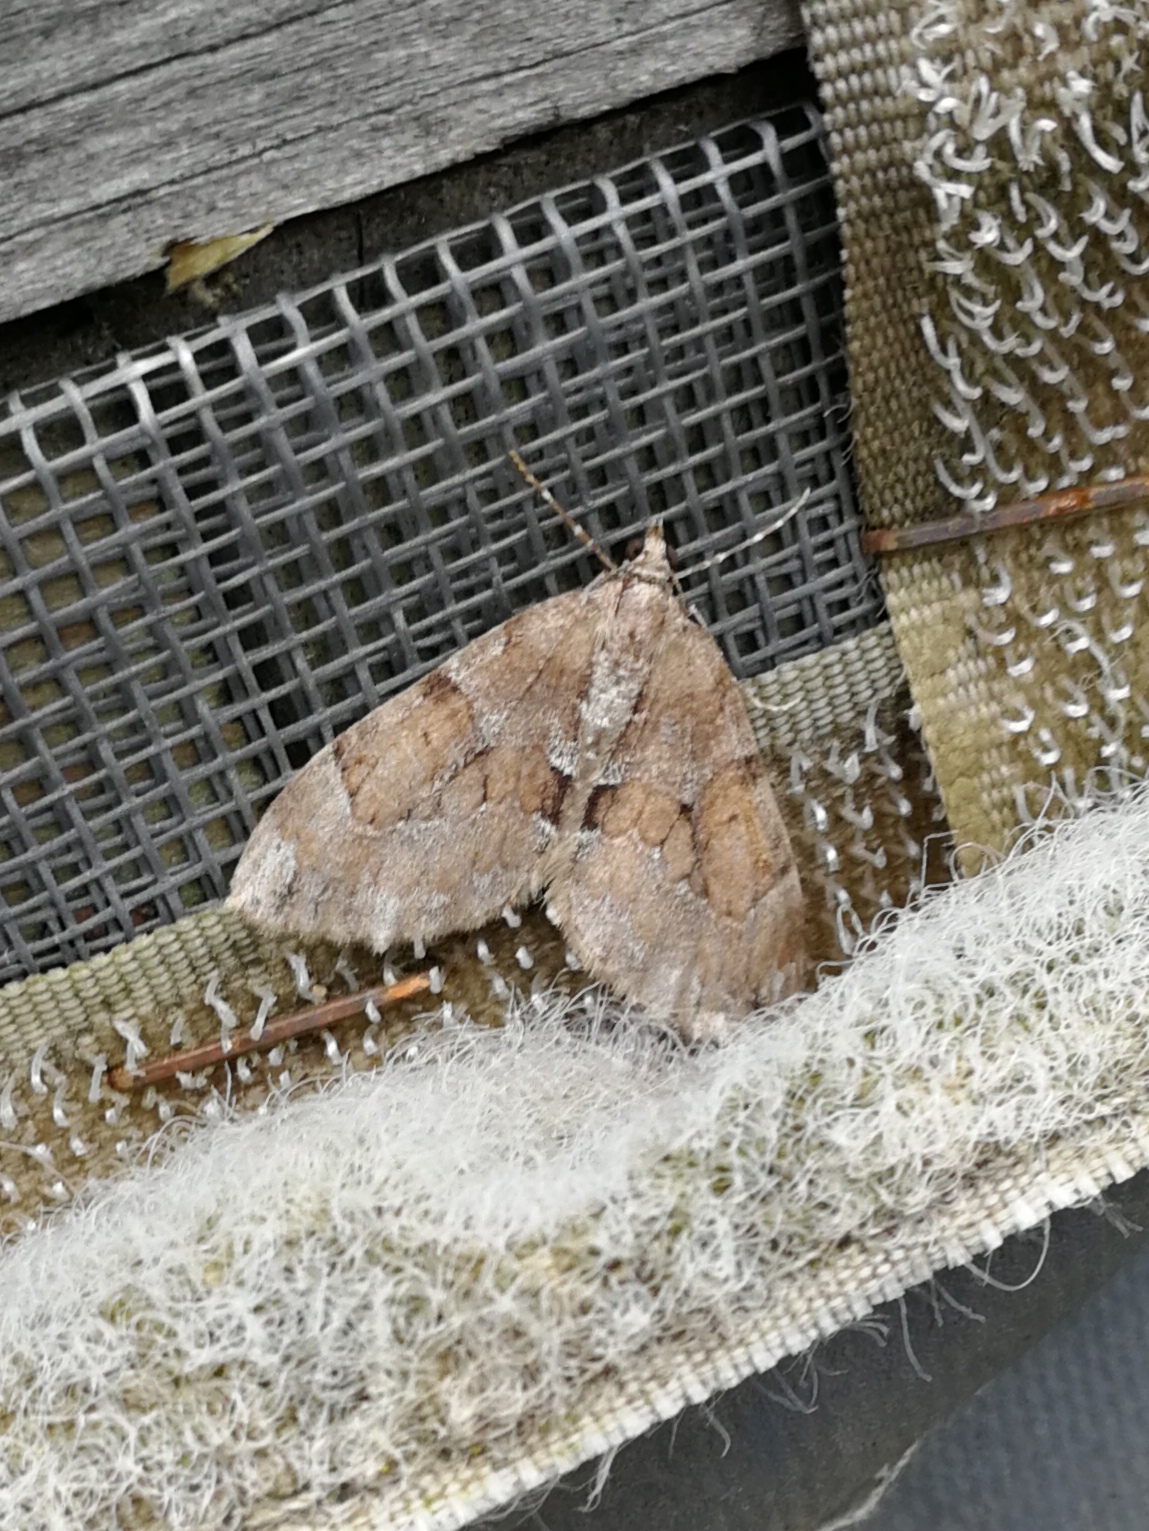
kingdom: Animalia
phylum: Arthropoda
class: Insecta
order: Lepidoptera
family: Geometridae
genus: Thera
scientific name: Thera obeliscata
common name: Grey pine carpet
